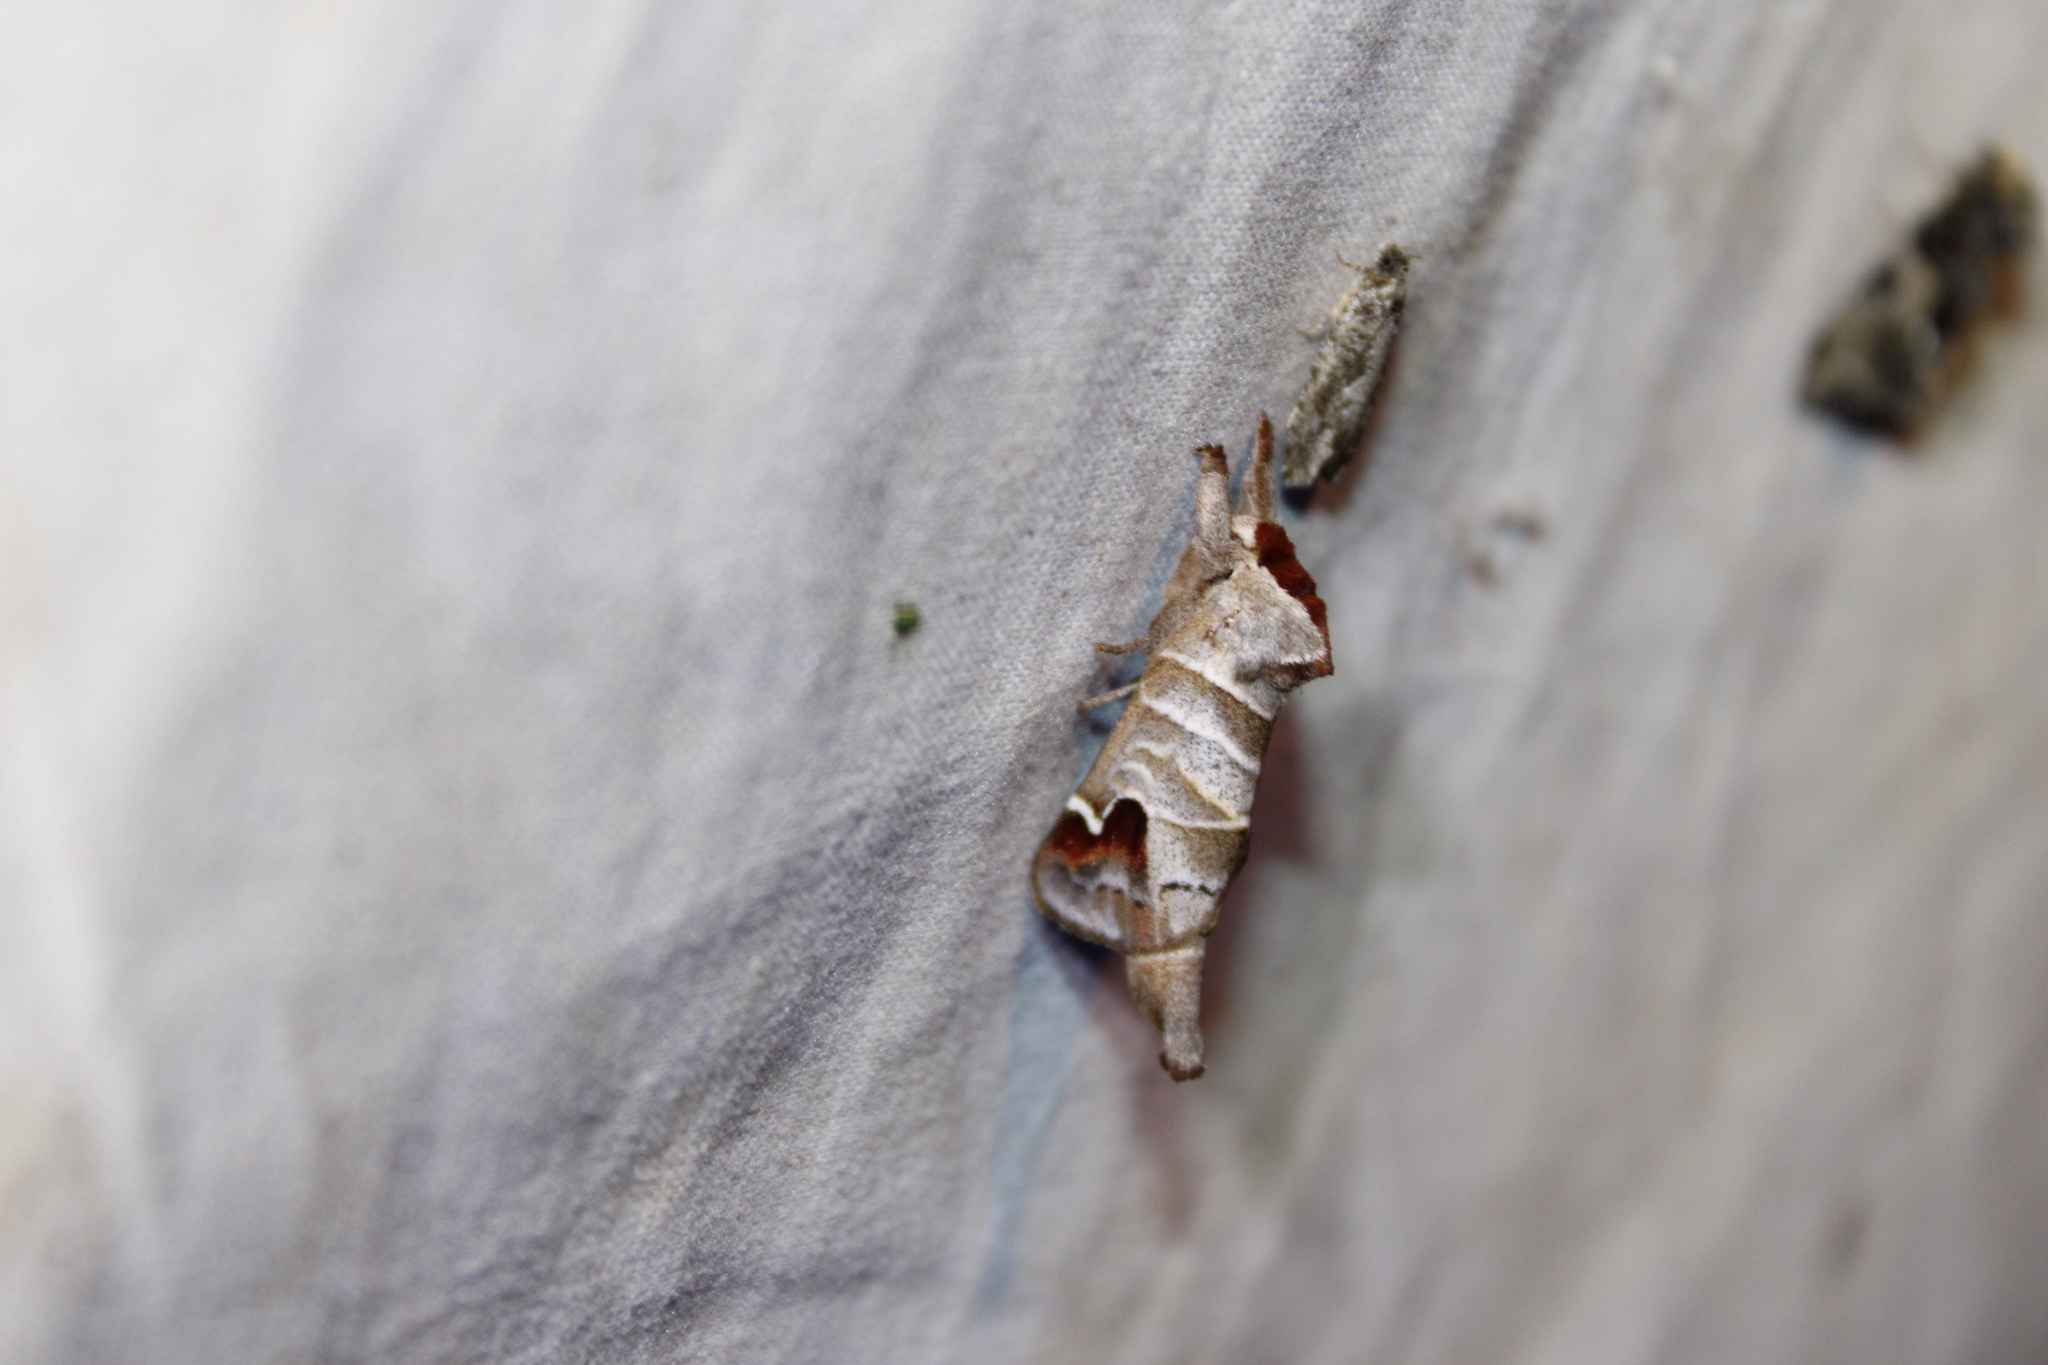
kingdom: Animalia
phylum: Arthropoda
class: Insecta
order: Lepidoptera
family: Notodontidae
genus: Clostera
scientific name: Clostera albosigma
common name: Sigmoid prominent
